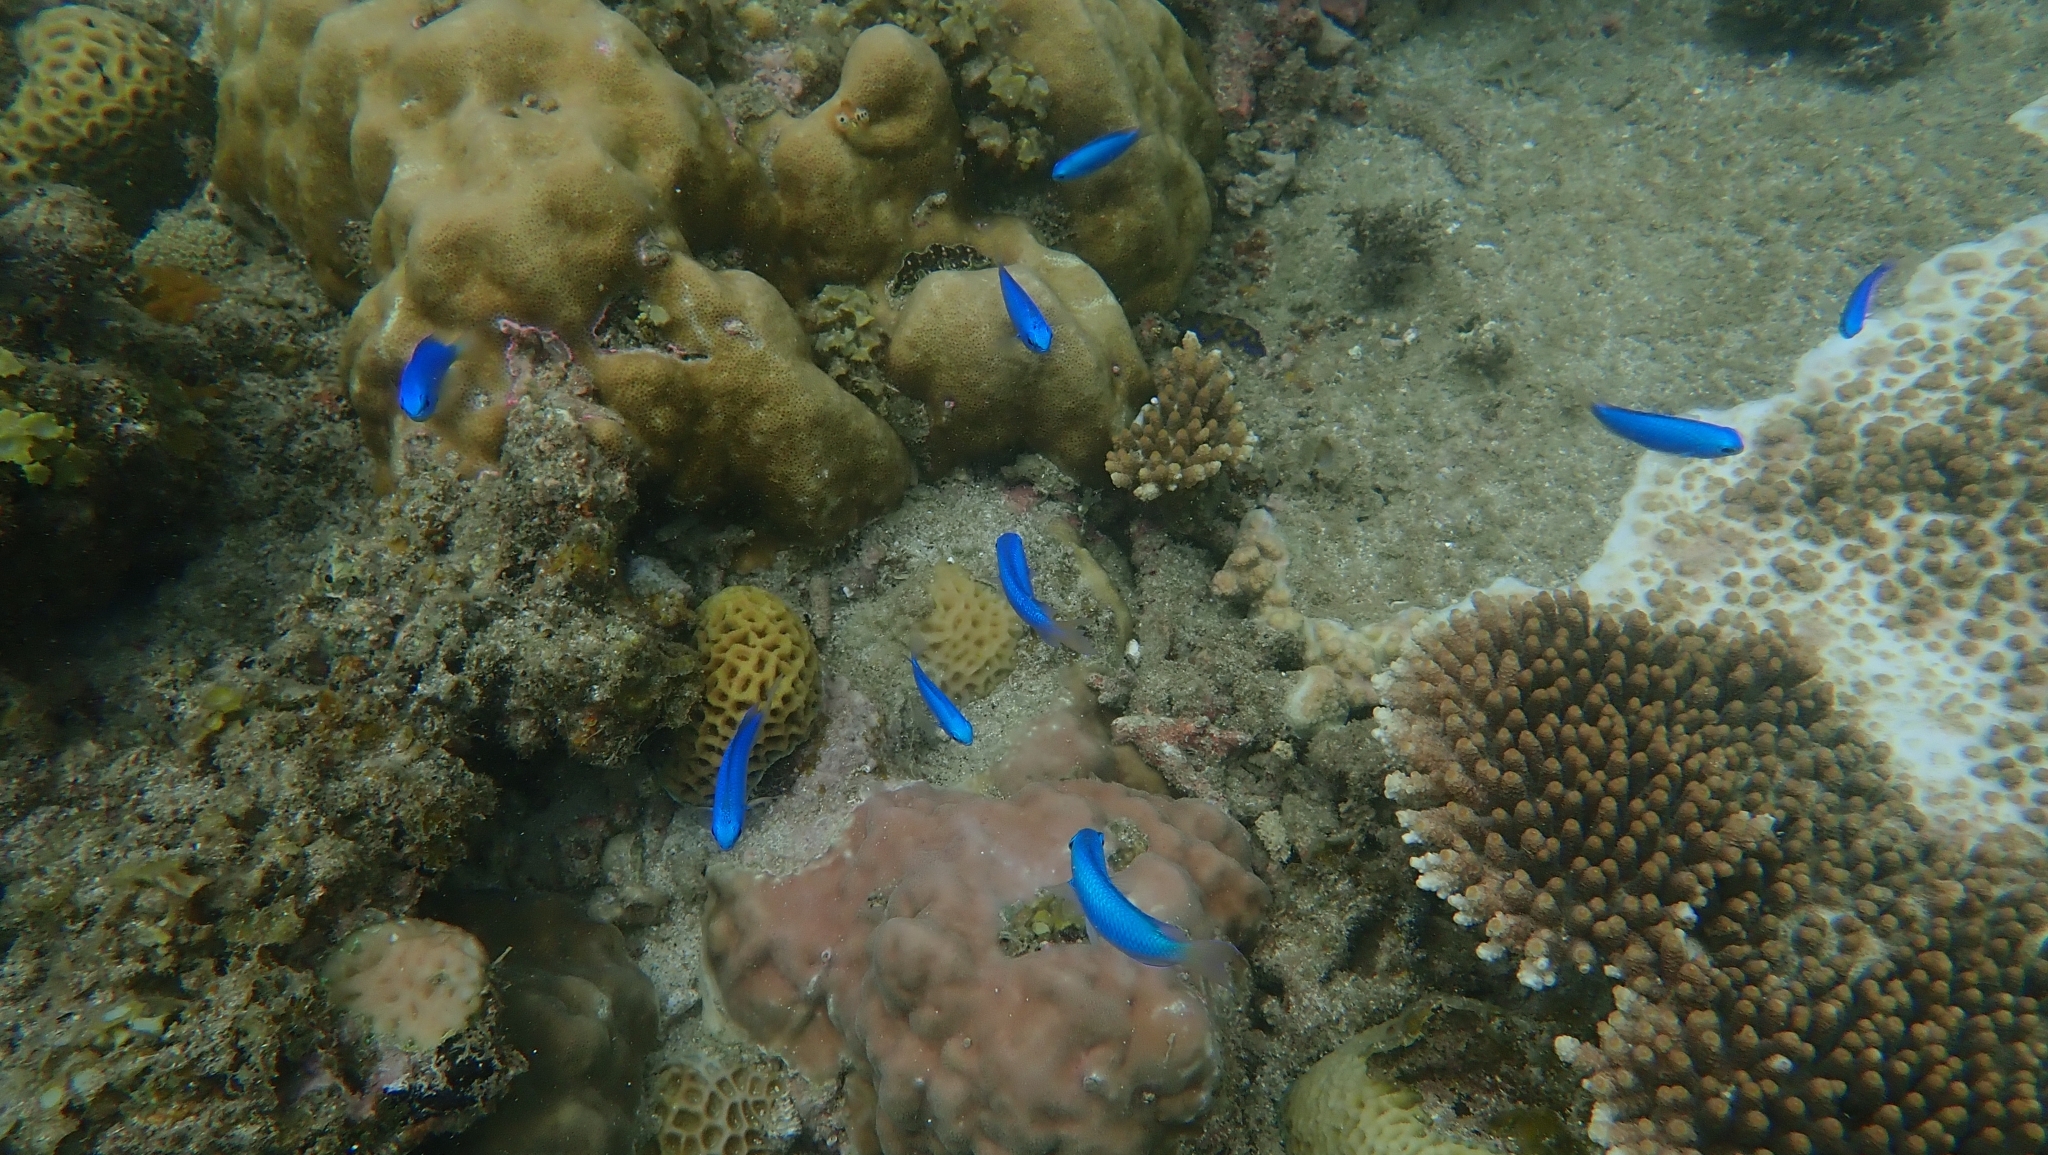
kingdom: Animalia
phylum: Chordata
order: Perciformes
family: Pomacentridae
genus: Pomacentrus
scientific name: Pomacentrus coelestis
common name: Neon damsel
